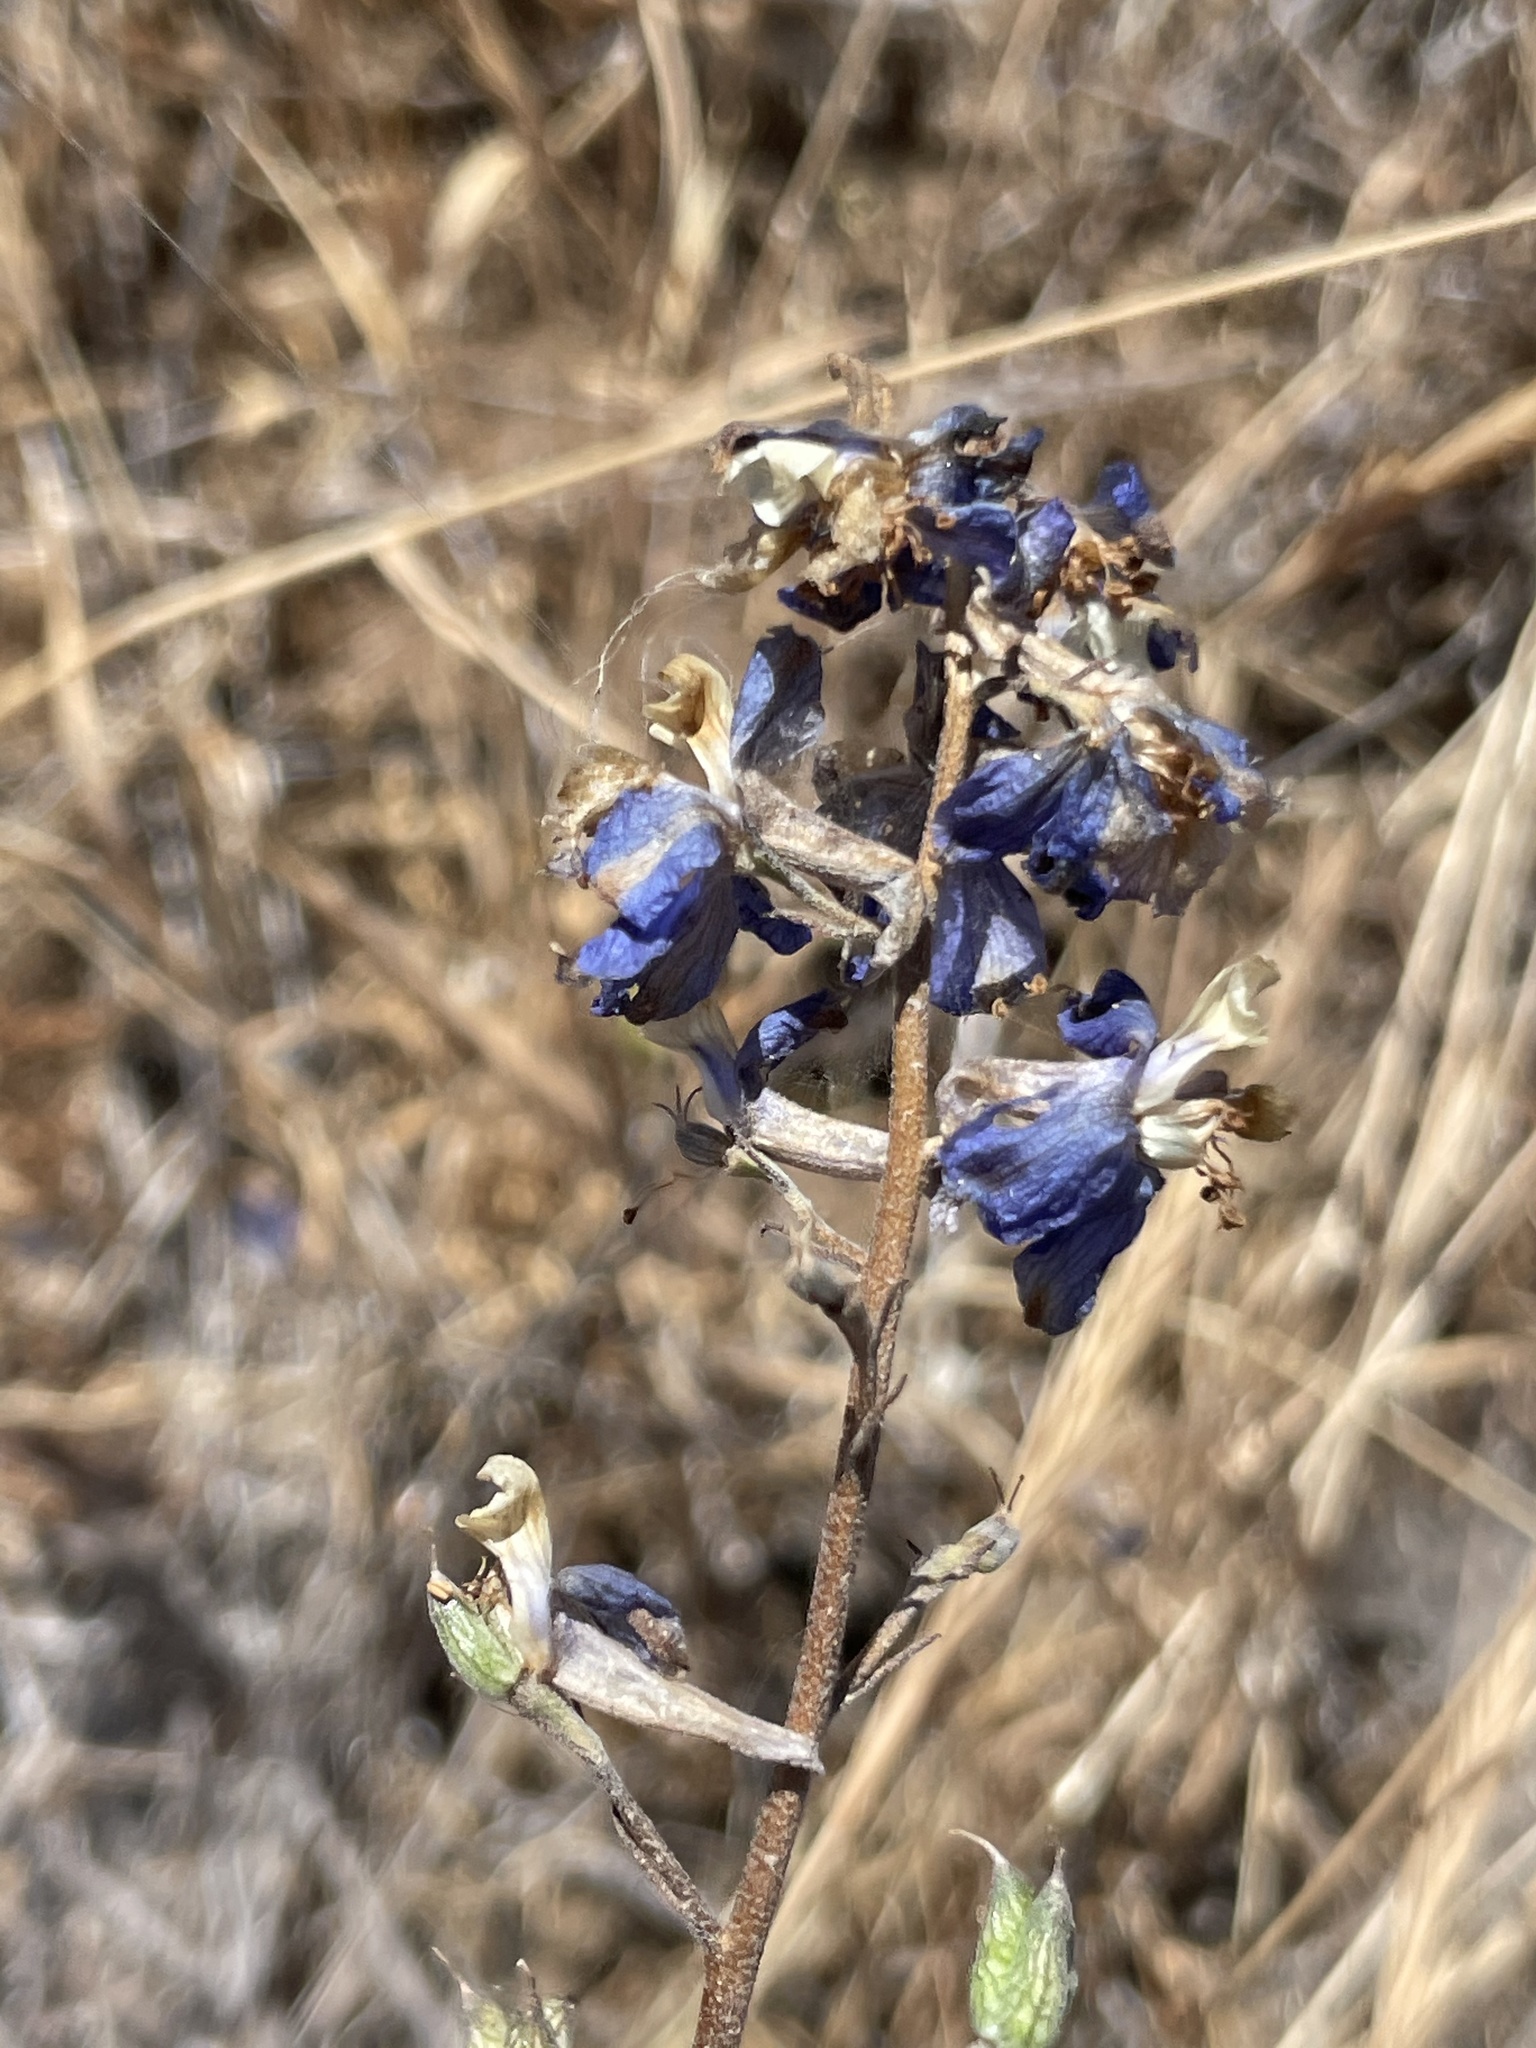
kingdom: Plantae
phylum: Tracheophyta
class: Magnoliopsida
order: Ranunculales
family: Ranunculaceae
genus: Delphinium
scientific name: Delphinium parishii
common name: Apache larkspur
